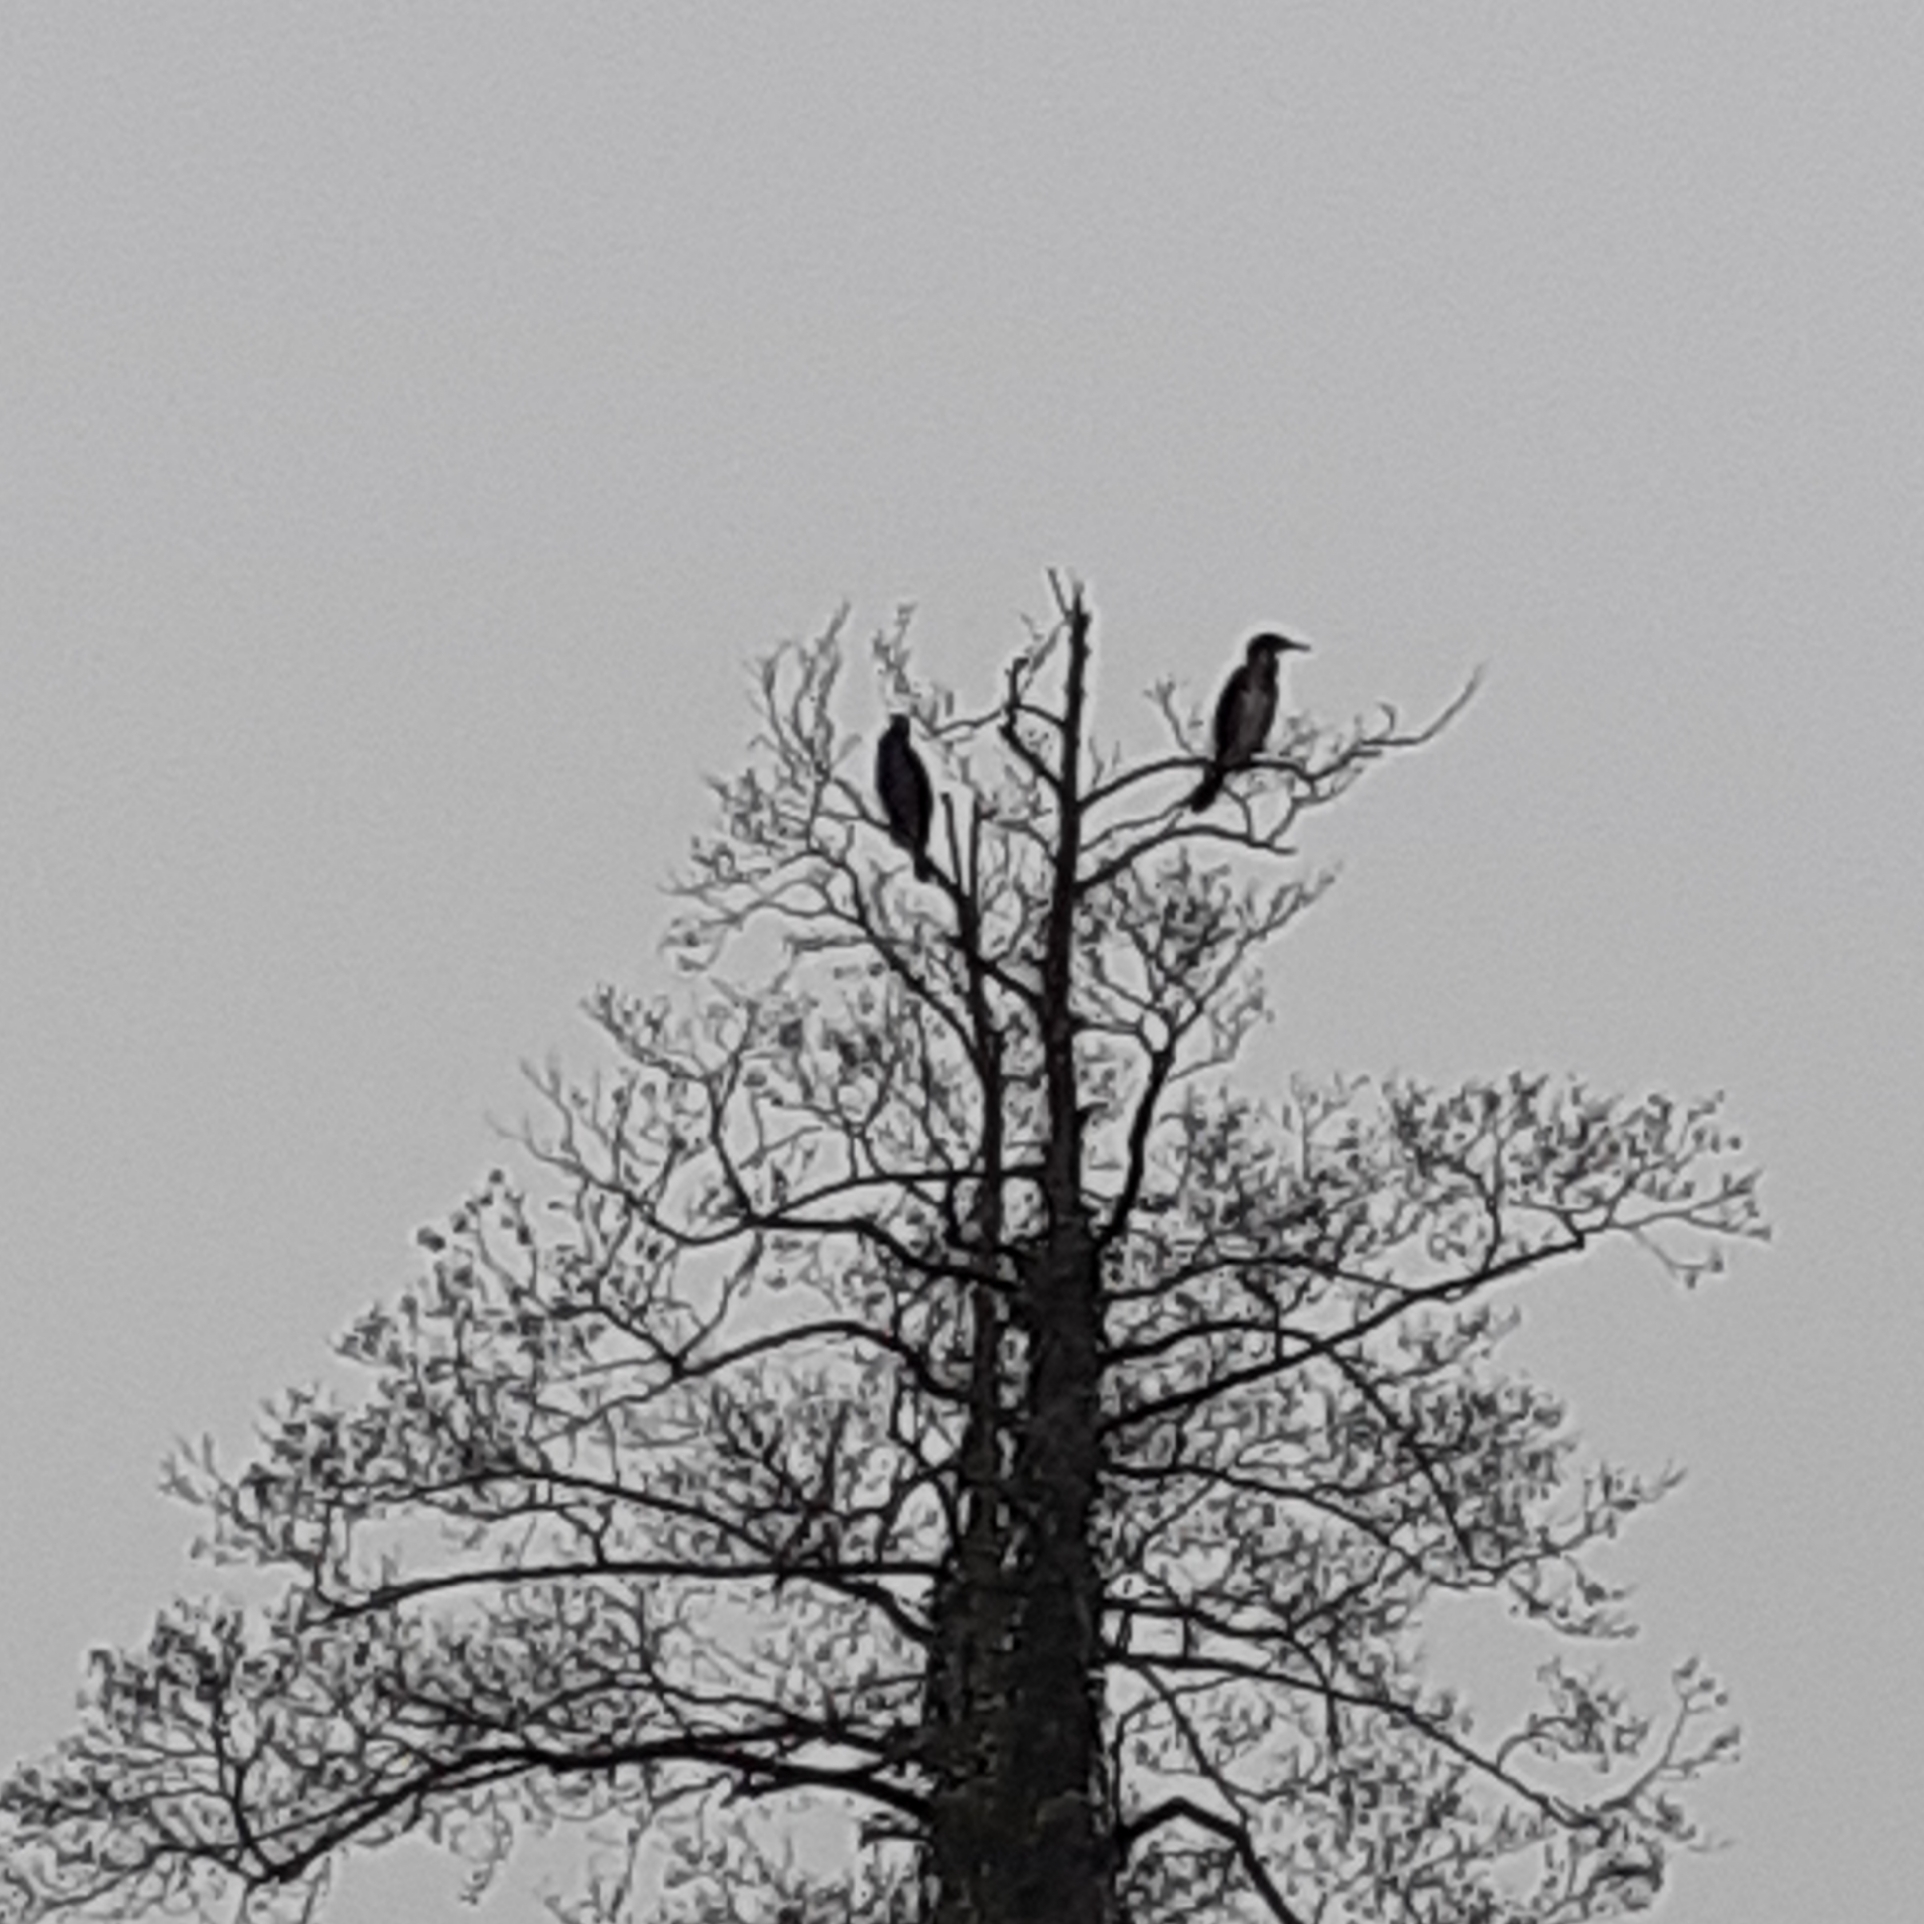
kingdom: Animalia
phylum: Chordata
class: Aves
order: Suliformes
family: Phalacrocoracidae
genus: Phalacrocorax
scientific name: Phalacrocorax carbo
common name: Great cormorant
